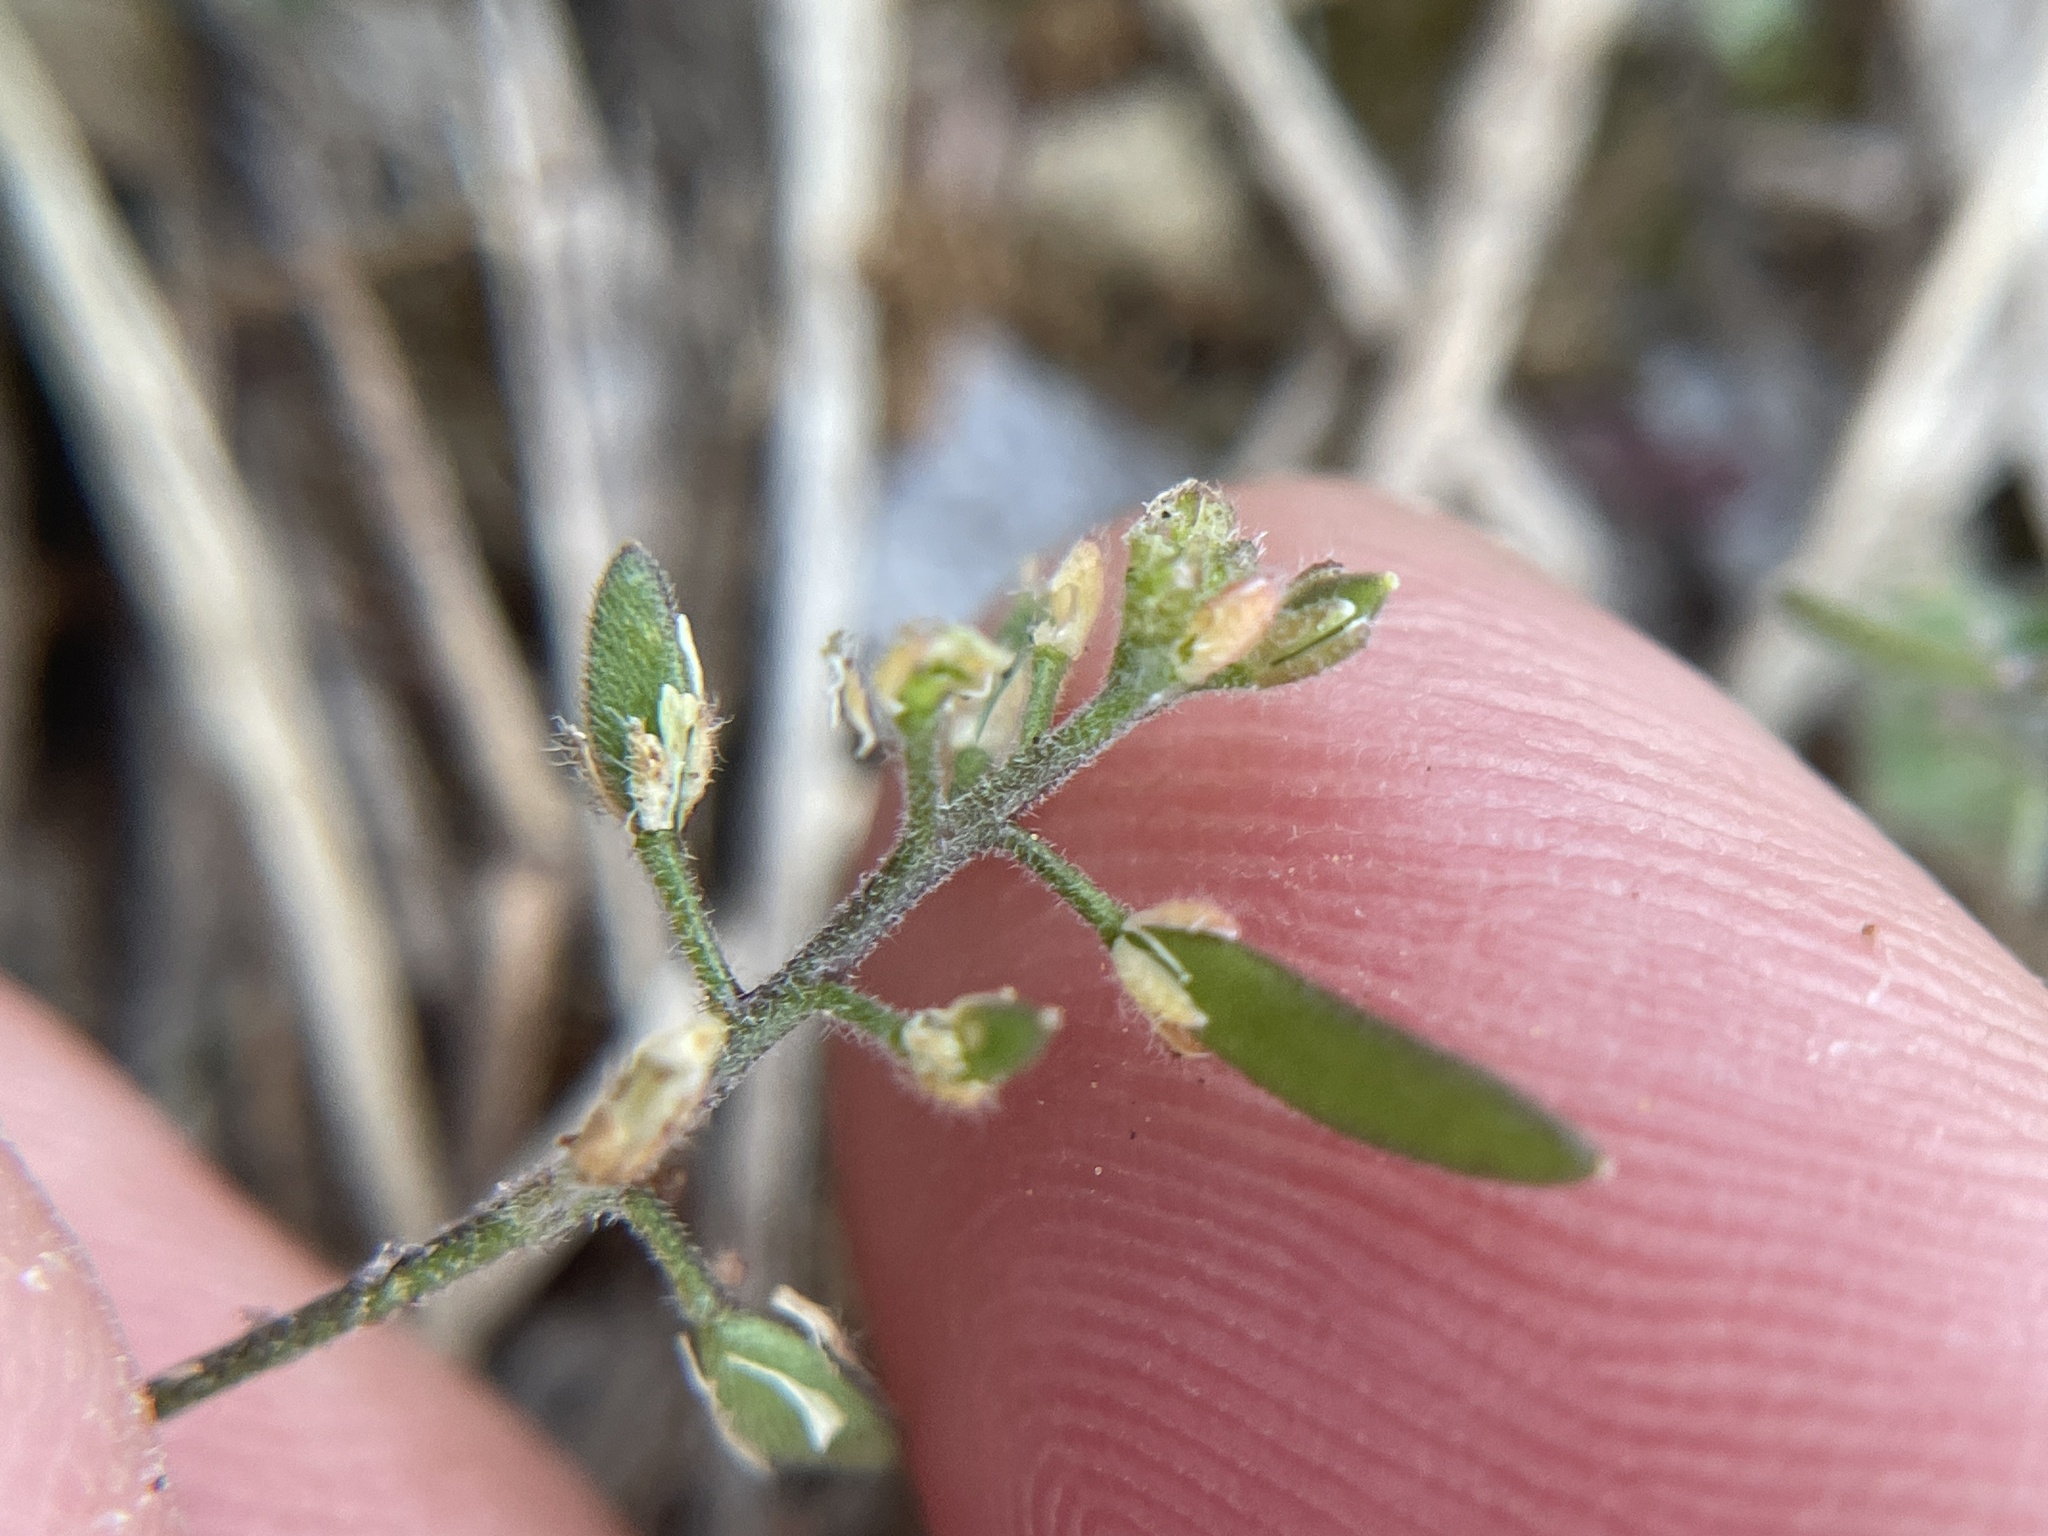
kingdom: Plantae
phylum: Tracheophyta
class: Magnoliopsida
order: Brassicales
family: Brassicaceae
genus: Tomostima
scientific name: Tomostima cuneifolia
